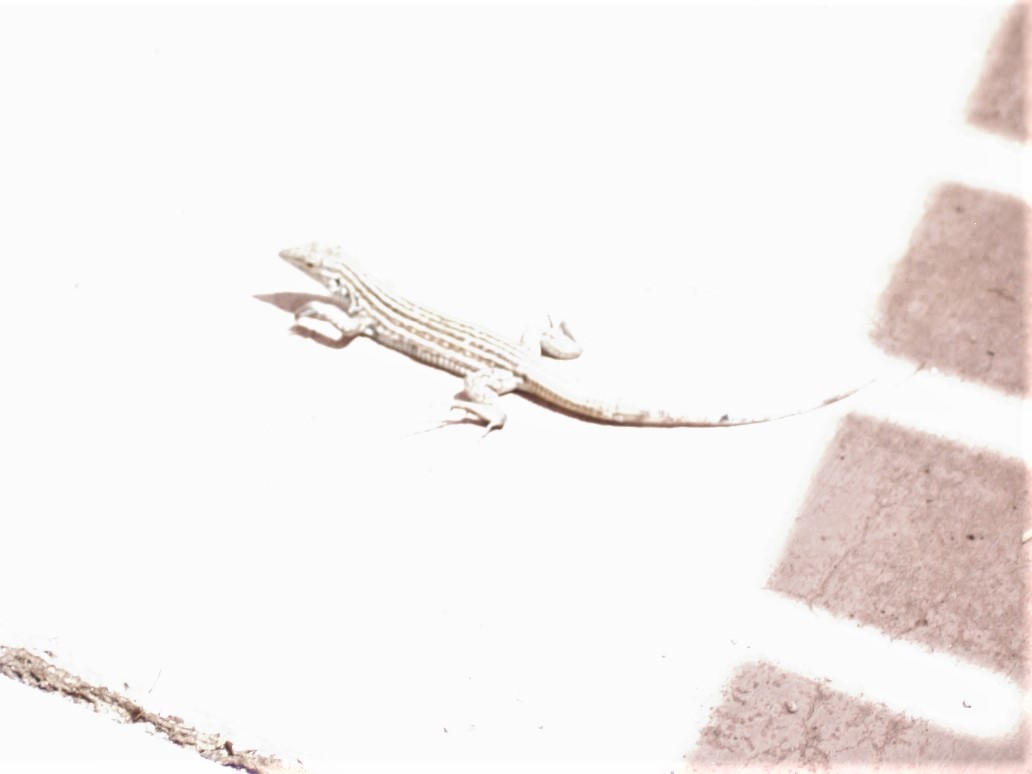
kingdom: Animalia
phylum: Chordata
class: Squamata
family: Teiidae
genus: Aspidoscelis
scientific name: Aspidoscelis neomexicanus
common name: New mexico whiptail
